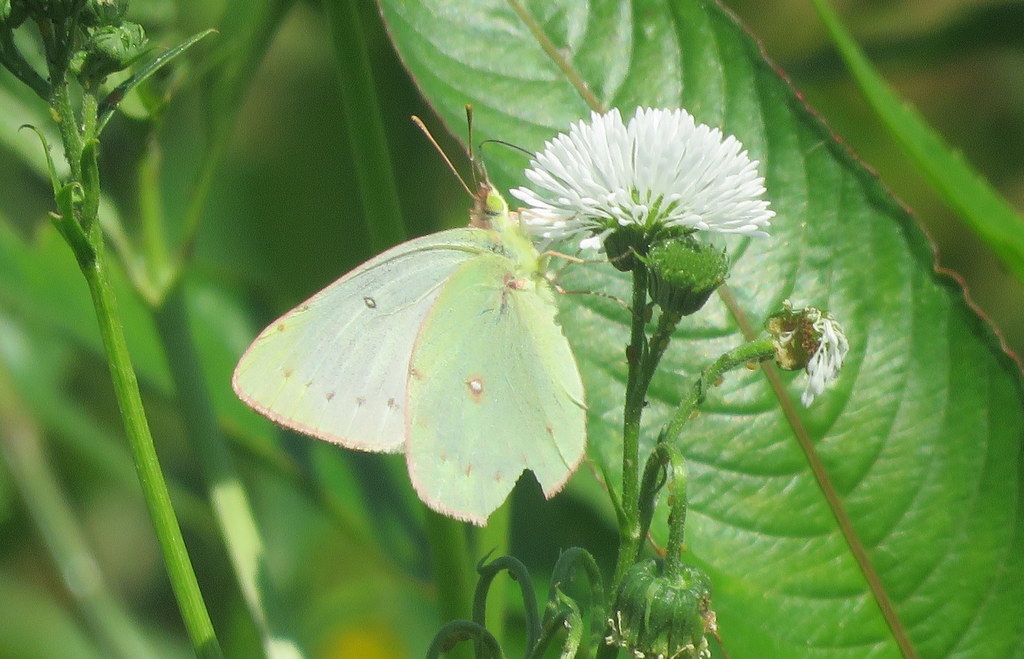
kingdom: Animalia
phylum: Arthropoda
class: Insecta
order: Lepidoptera
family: Pieridae
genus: Colias
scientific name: Colias lesbia
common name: Lesbia clouded yellow
